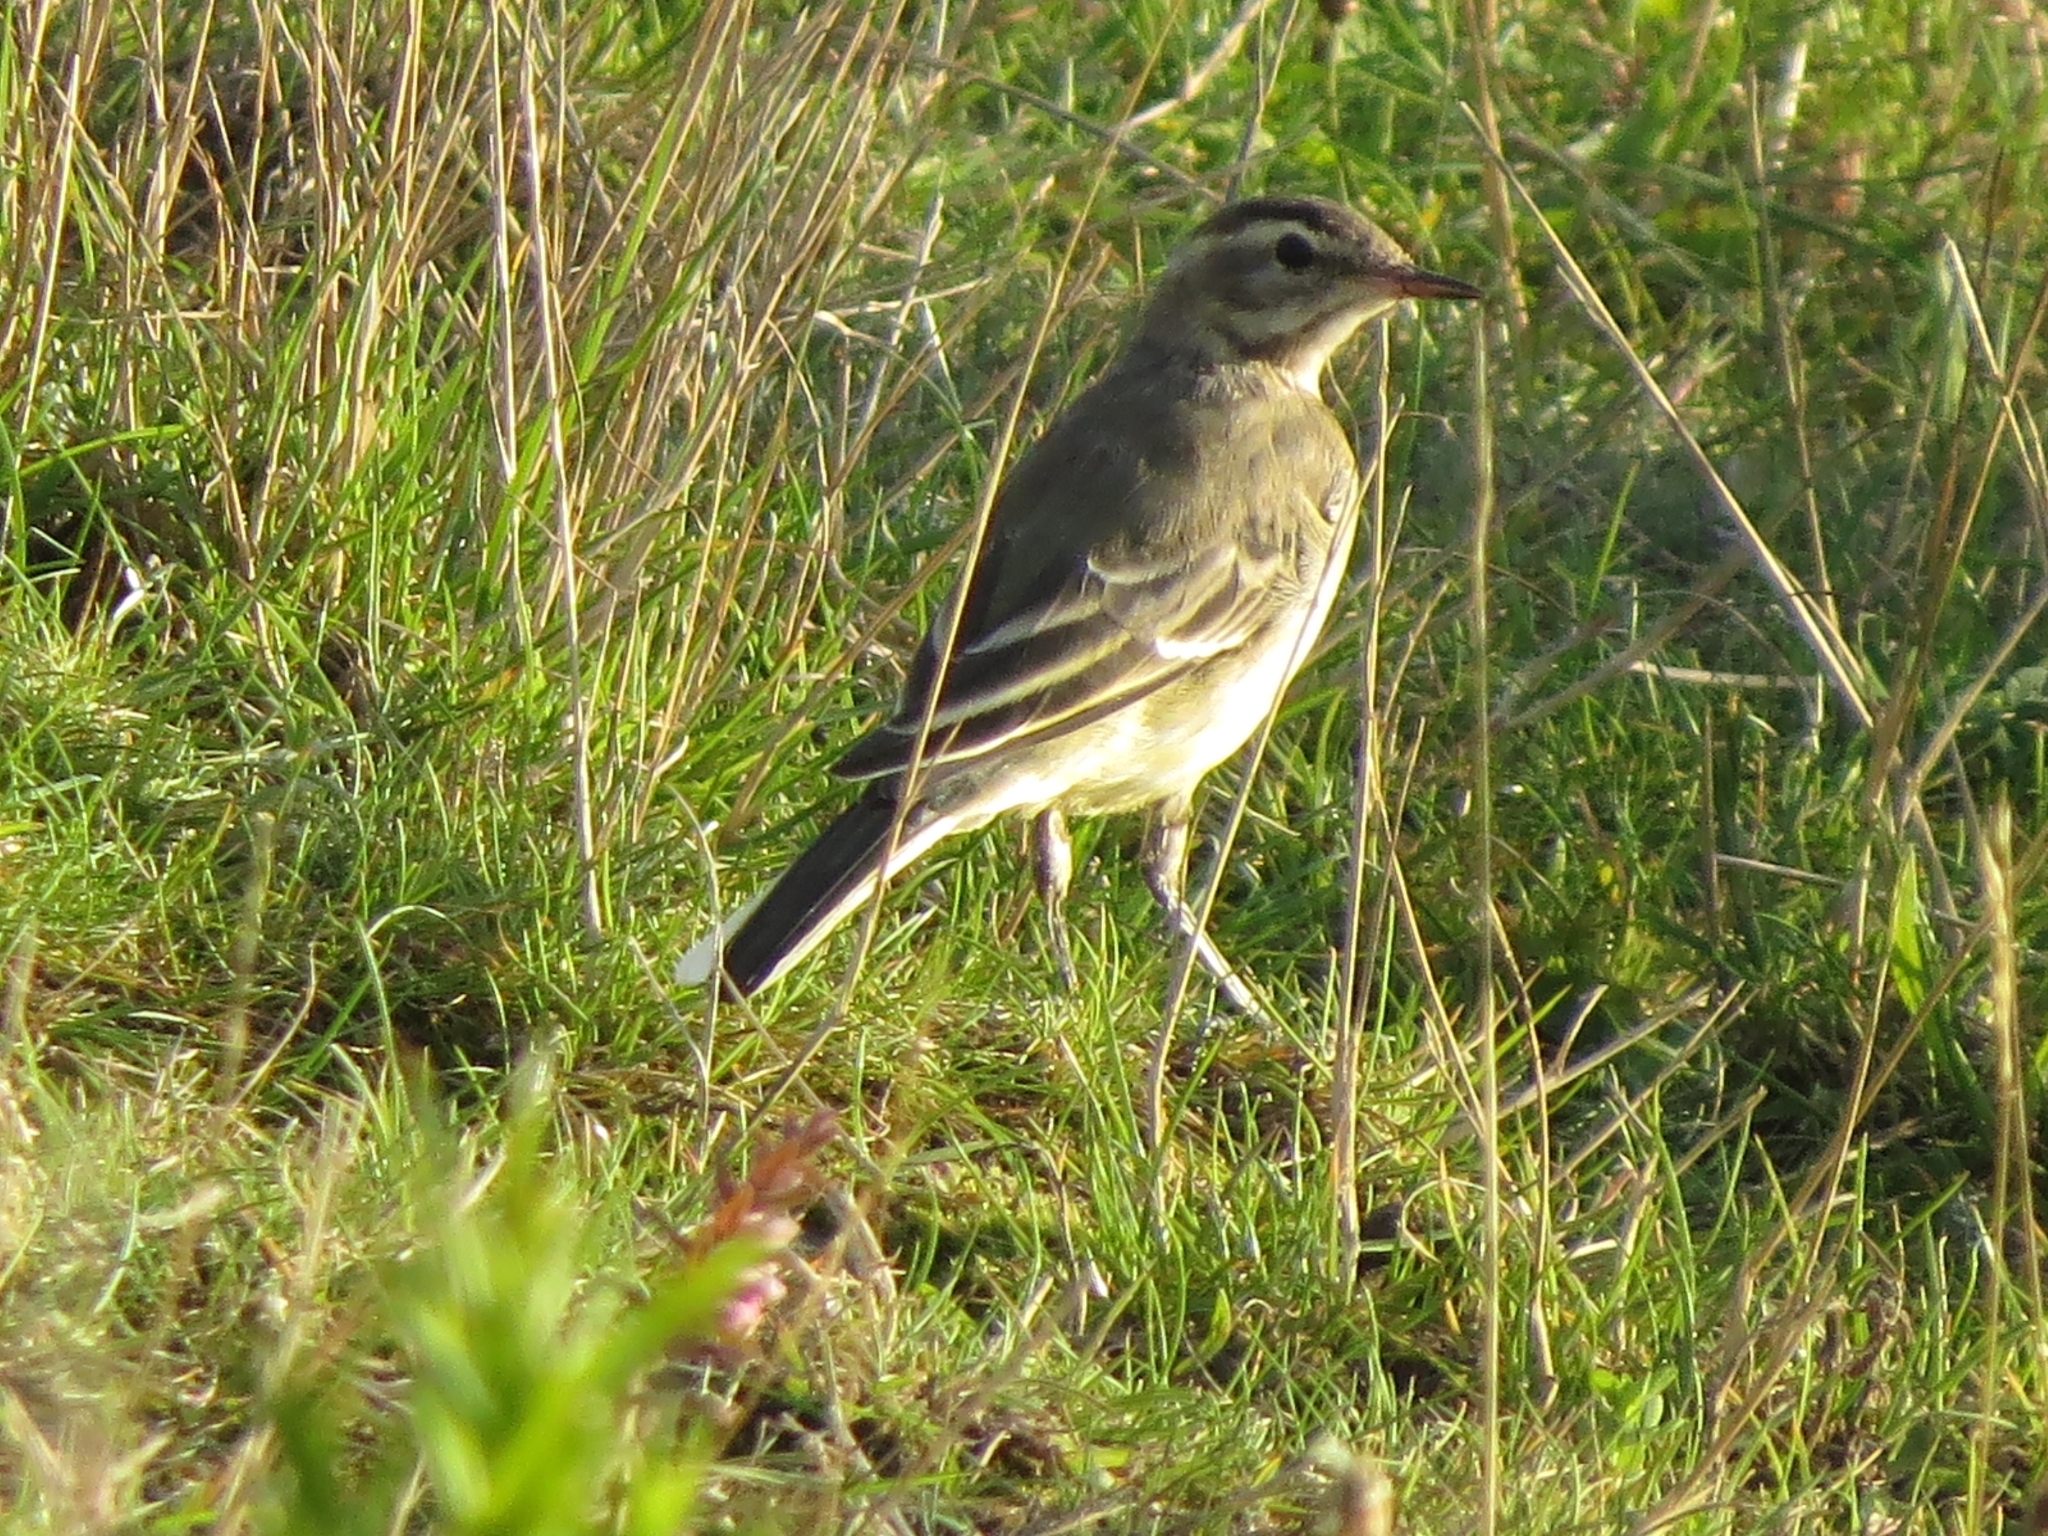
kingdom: Animalia
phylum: Chordata
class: Aves
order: Passeriformes
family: Motacillidae
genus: Motacilla
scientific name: Motacilla flava
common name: Western yellow wagtail
